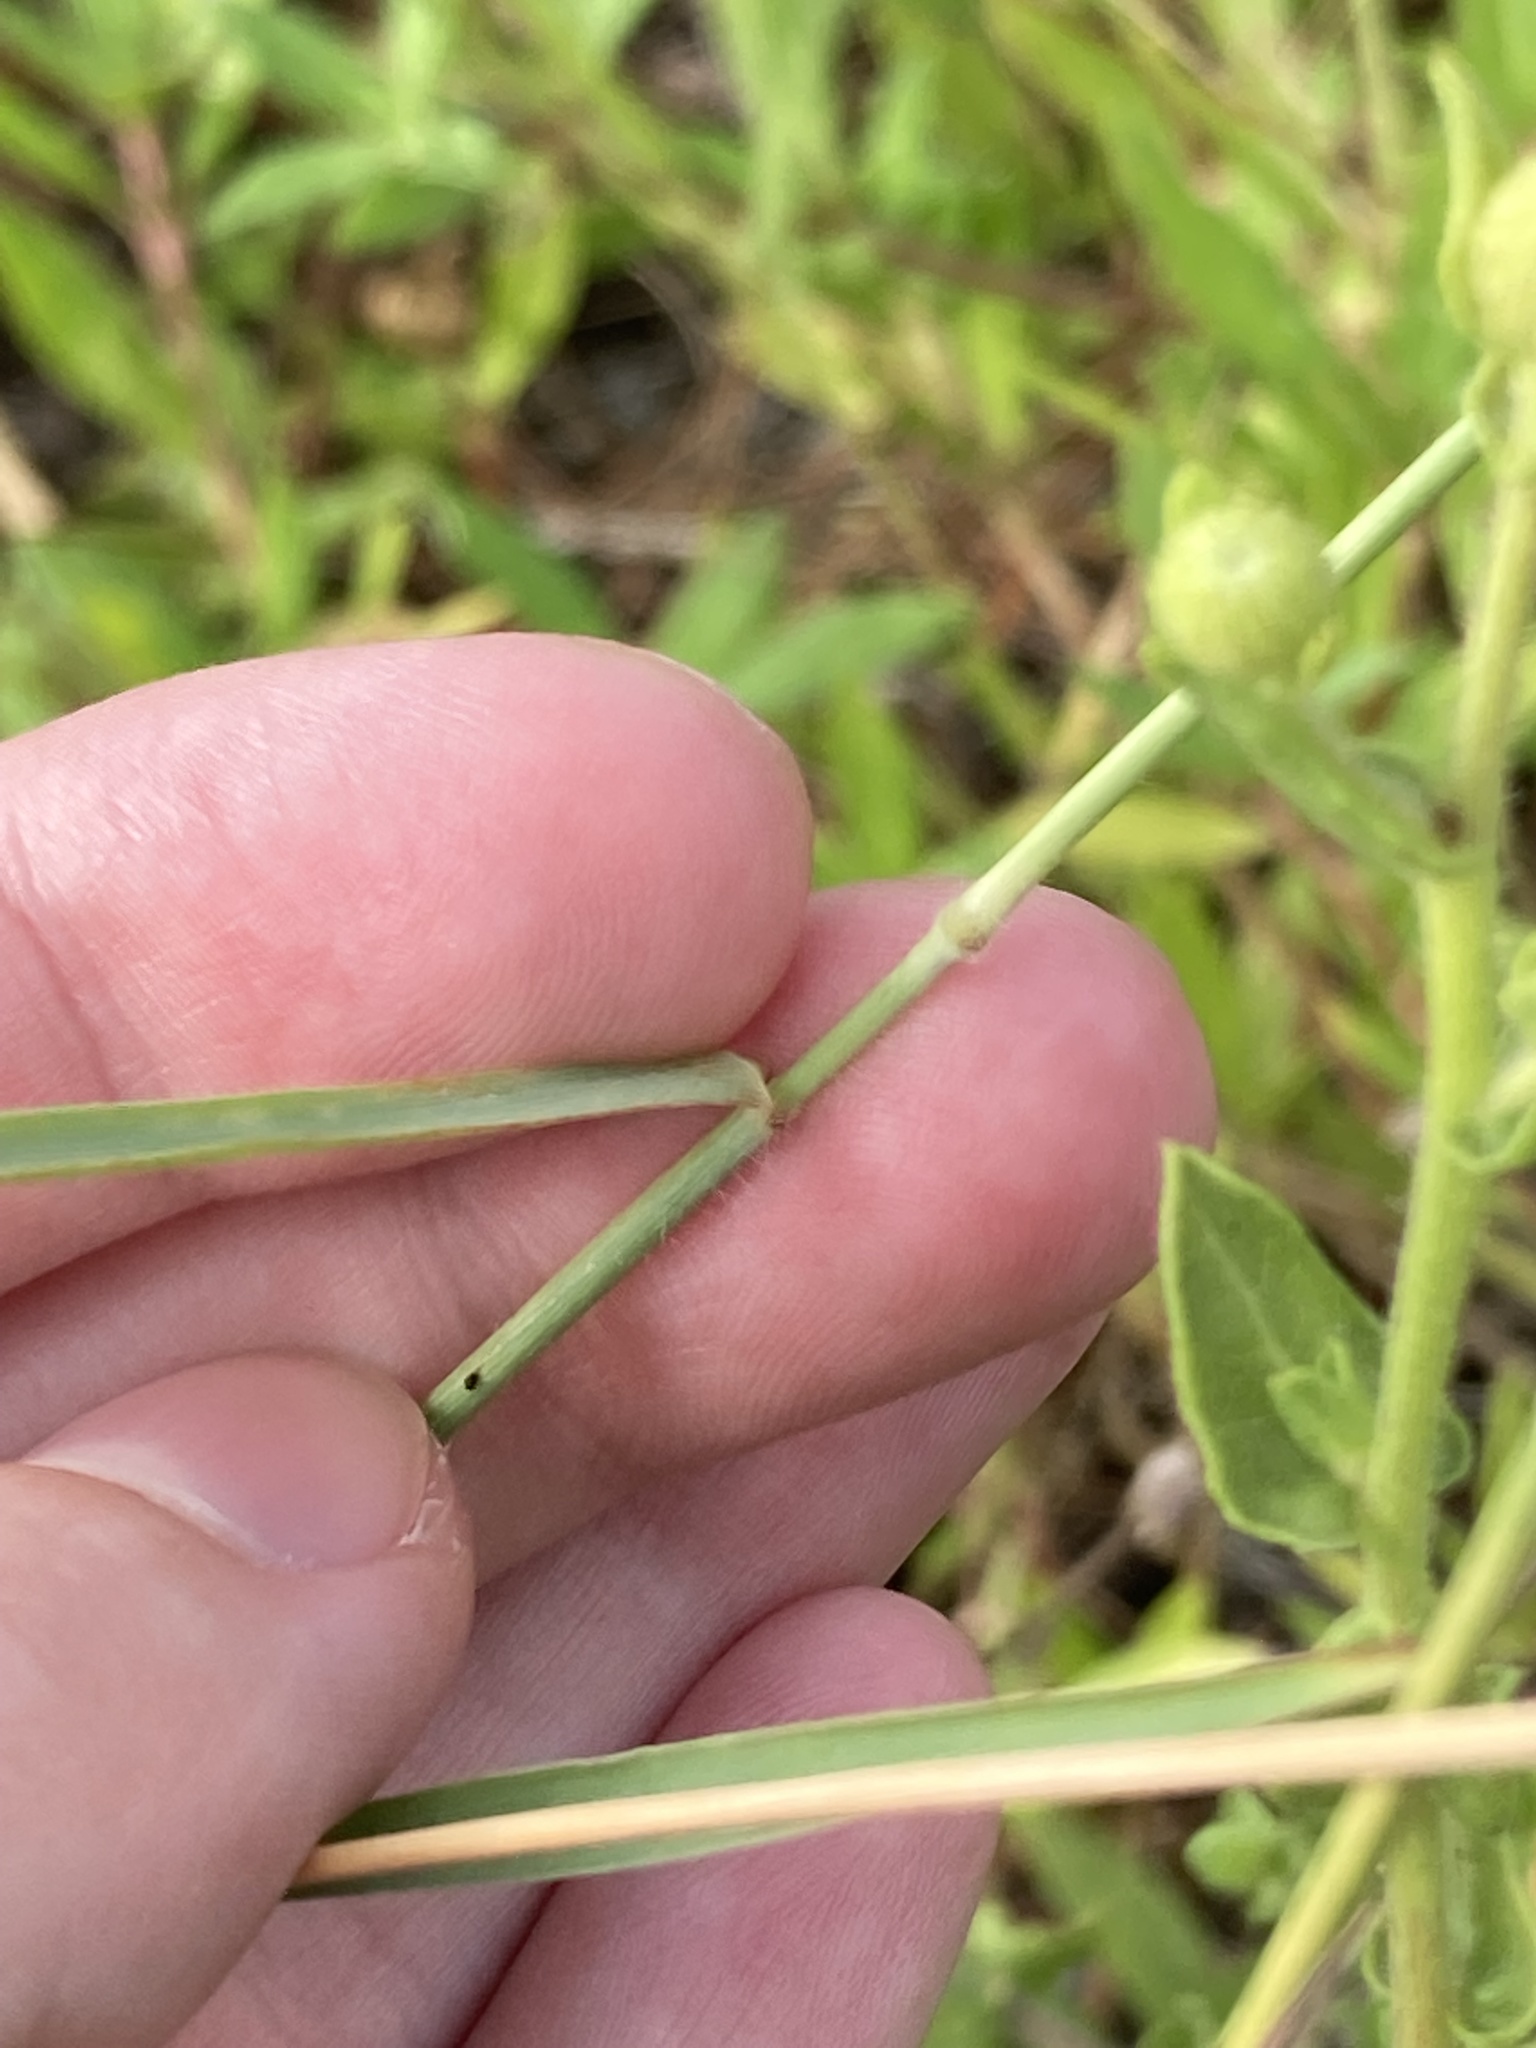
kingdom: Plantae
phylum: Tracheophyta
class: Liliopsida
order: Poales
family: Poaceae
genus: Melinis
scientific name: Melinis repens
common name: Rose natal grass
